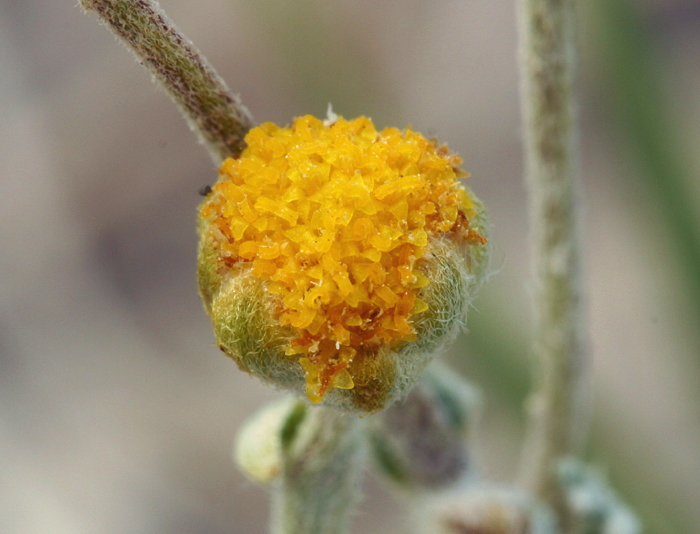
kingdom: Plantae
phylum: Tracheophyta
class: Magnoliopsida
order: Asterales
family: Asteraceae
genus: Artemisia
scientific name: Artemisia potentilloides
